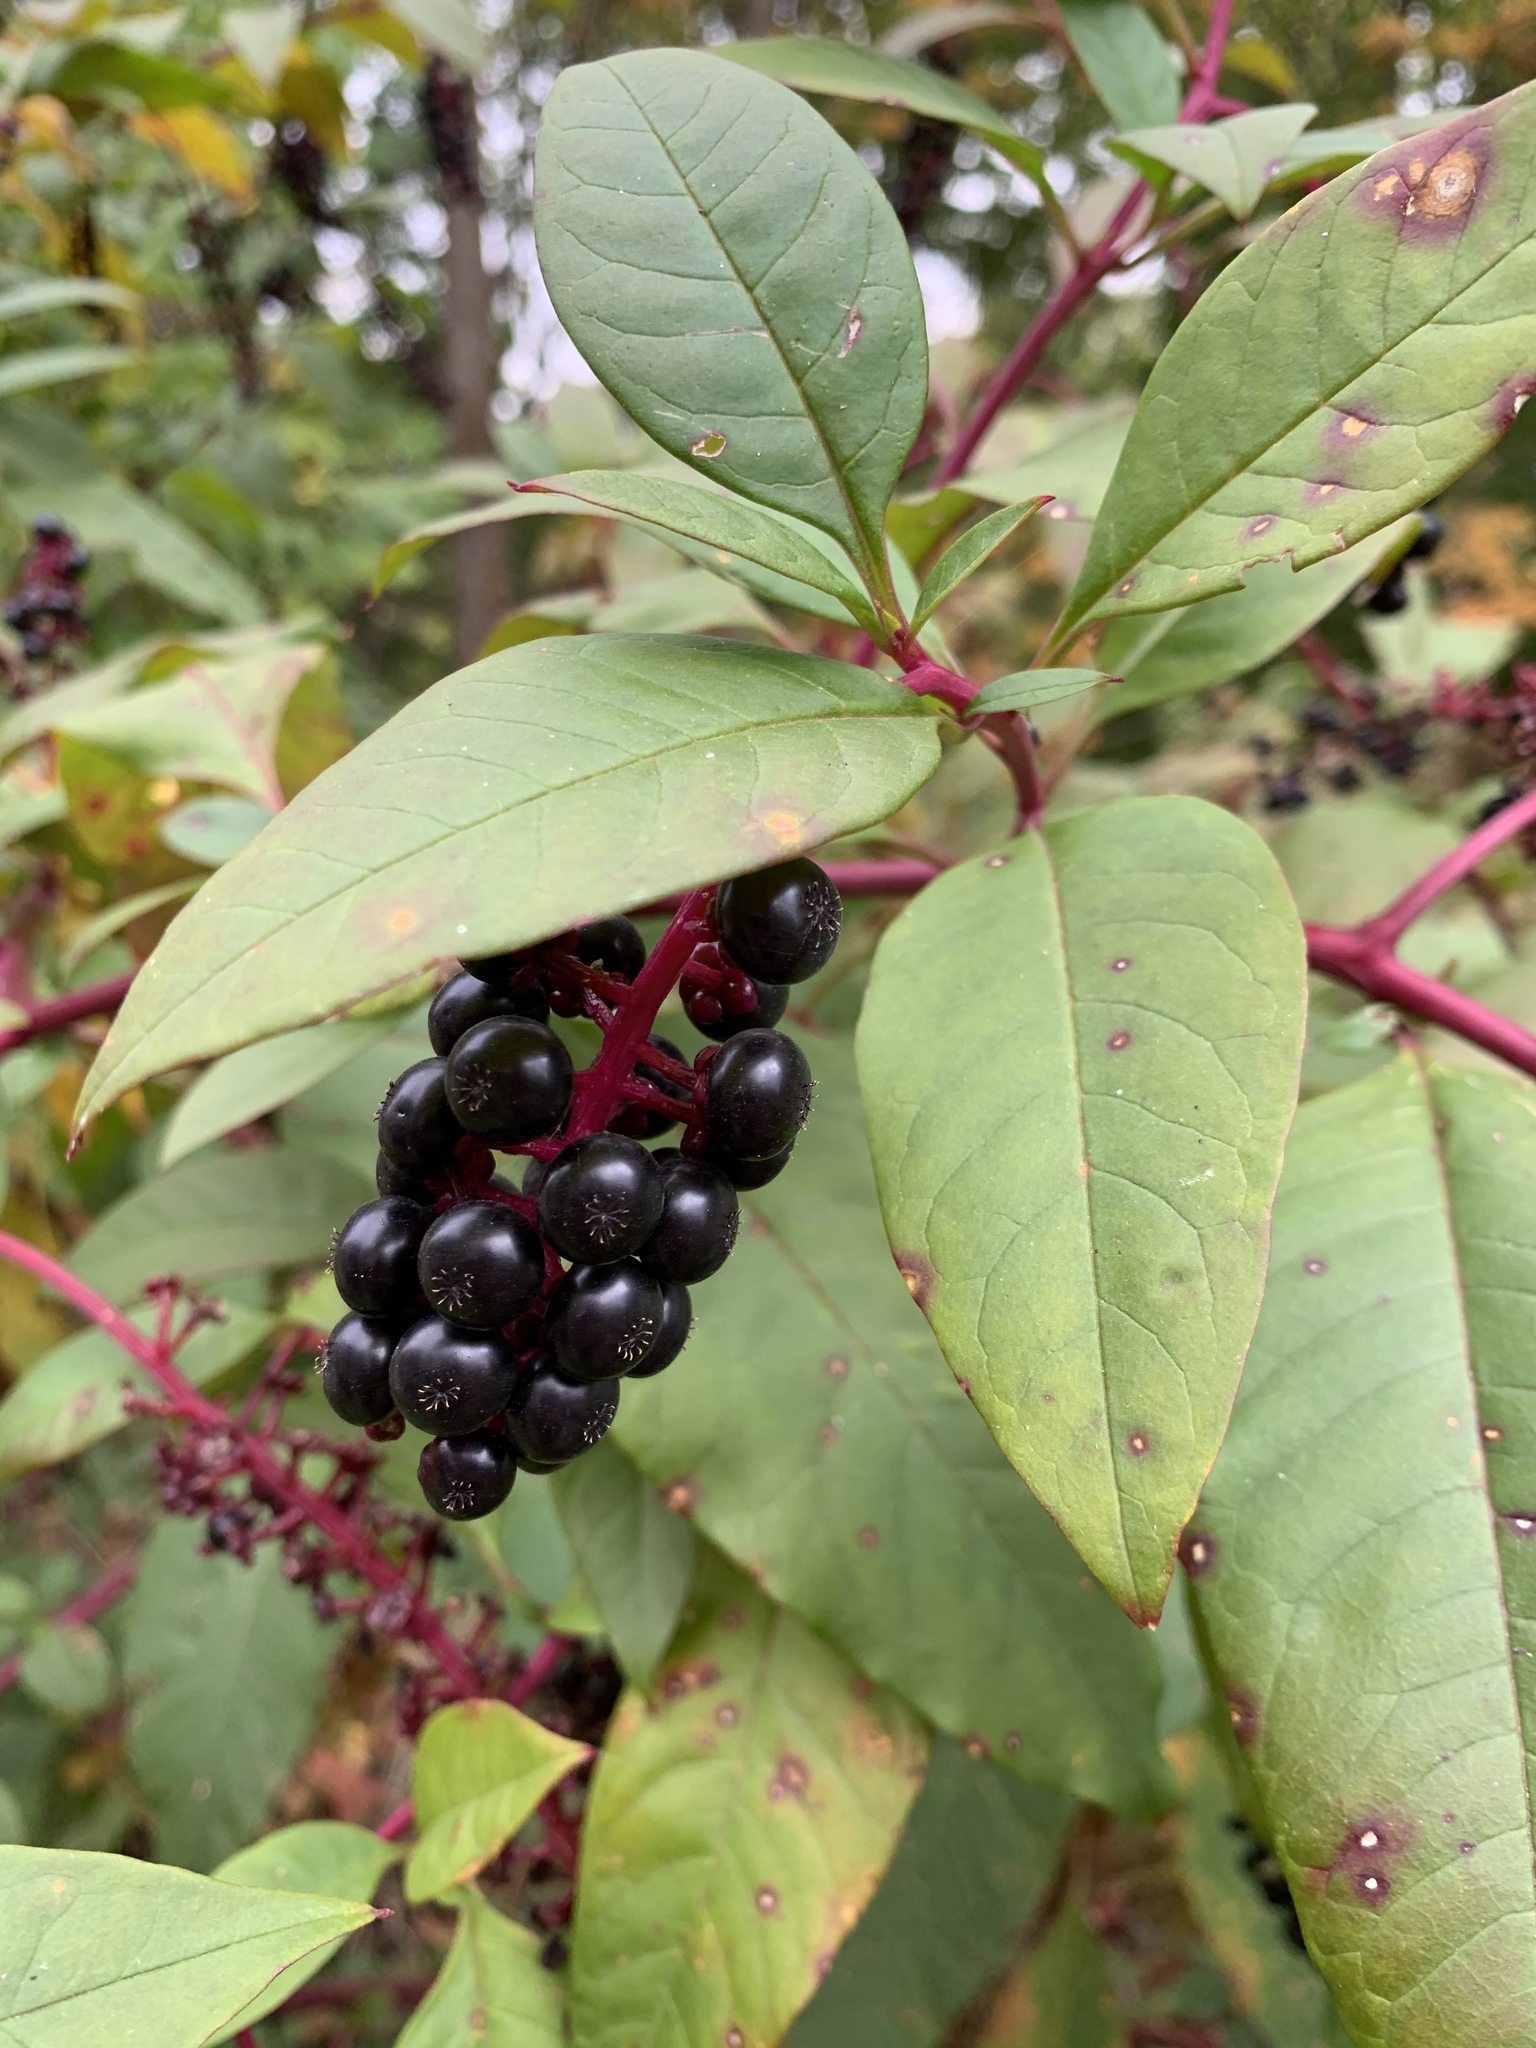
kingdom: Plantae
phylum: Tracheophyta
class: Magnoliopsida
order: Caryophyllales
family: Phytolaccaceae
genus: Phytolacca
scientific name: Phytolacca americana
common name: American pokeweed
